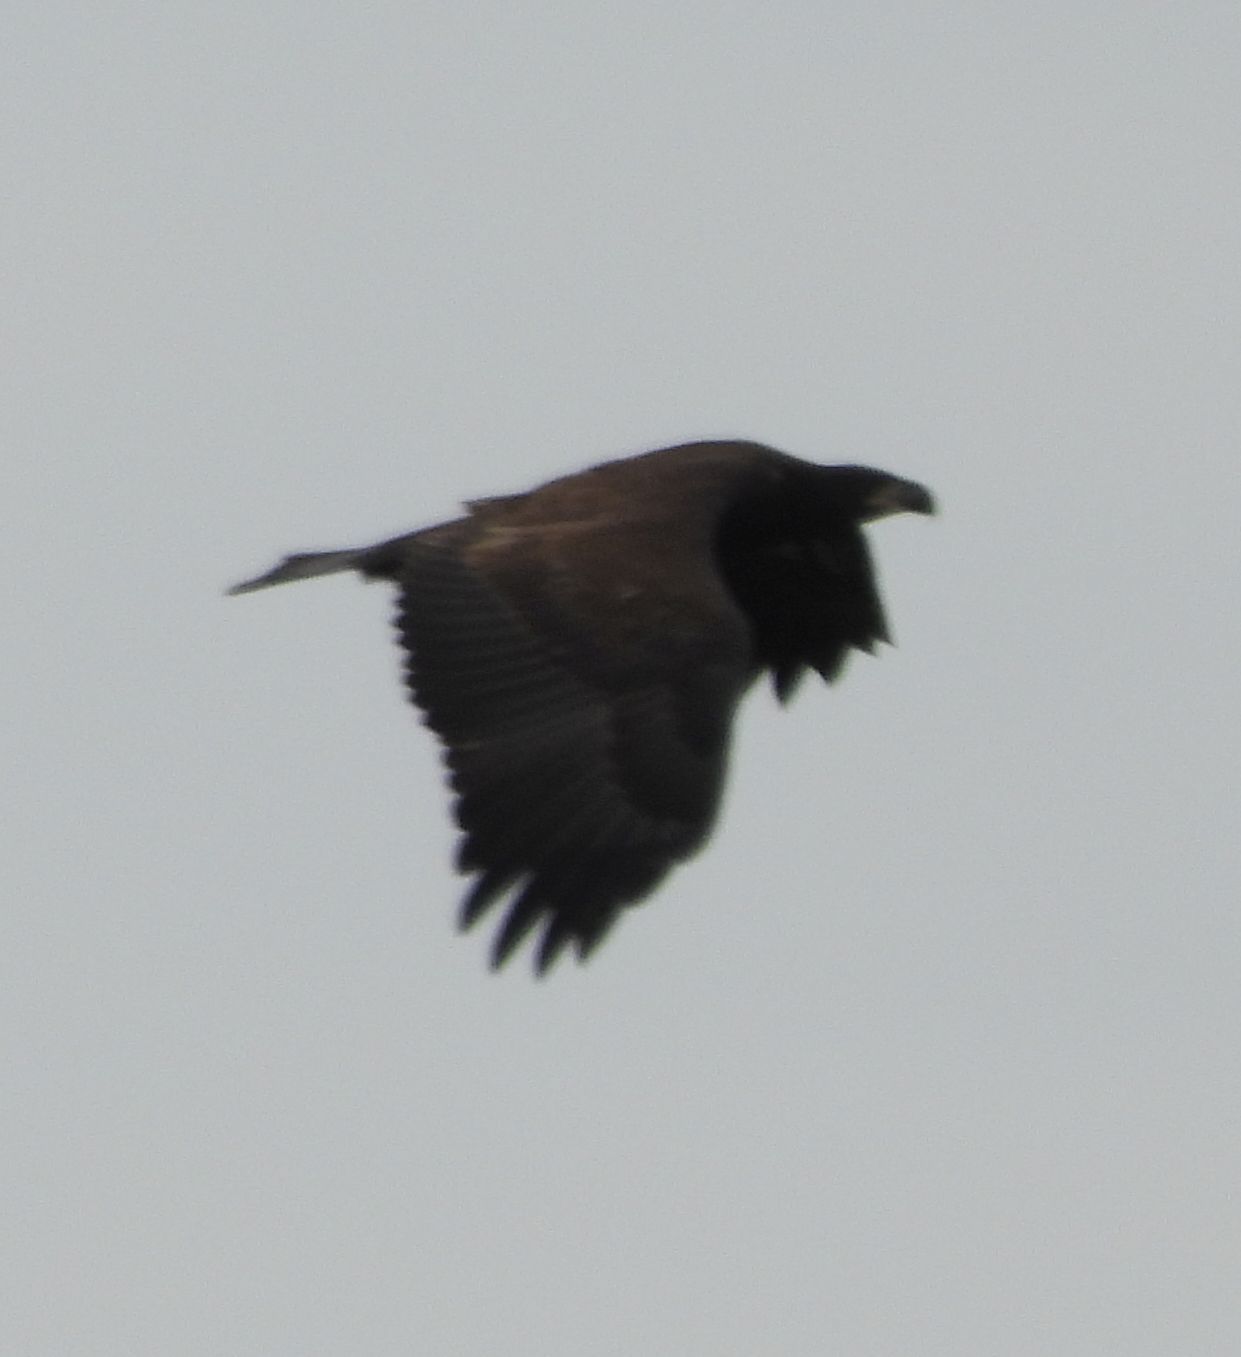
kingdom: Animalia
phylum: Chordata
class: Aves
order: Accipitriformes
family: Accipitridae
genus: Haliaeetus
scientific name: Haliaeetus leucocephalus
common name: Bald eagle
